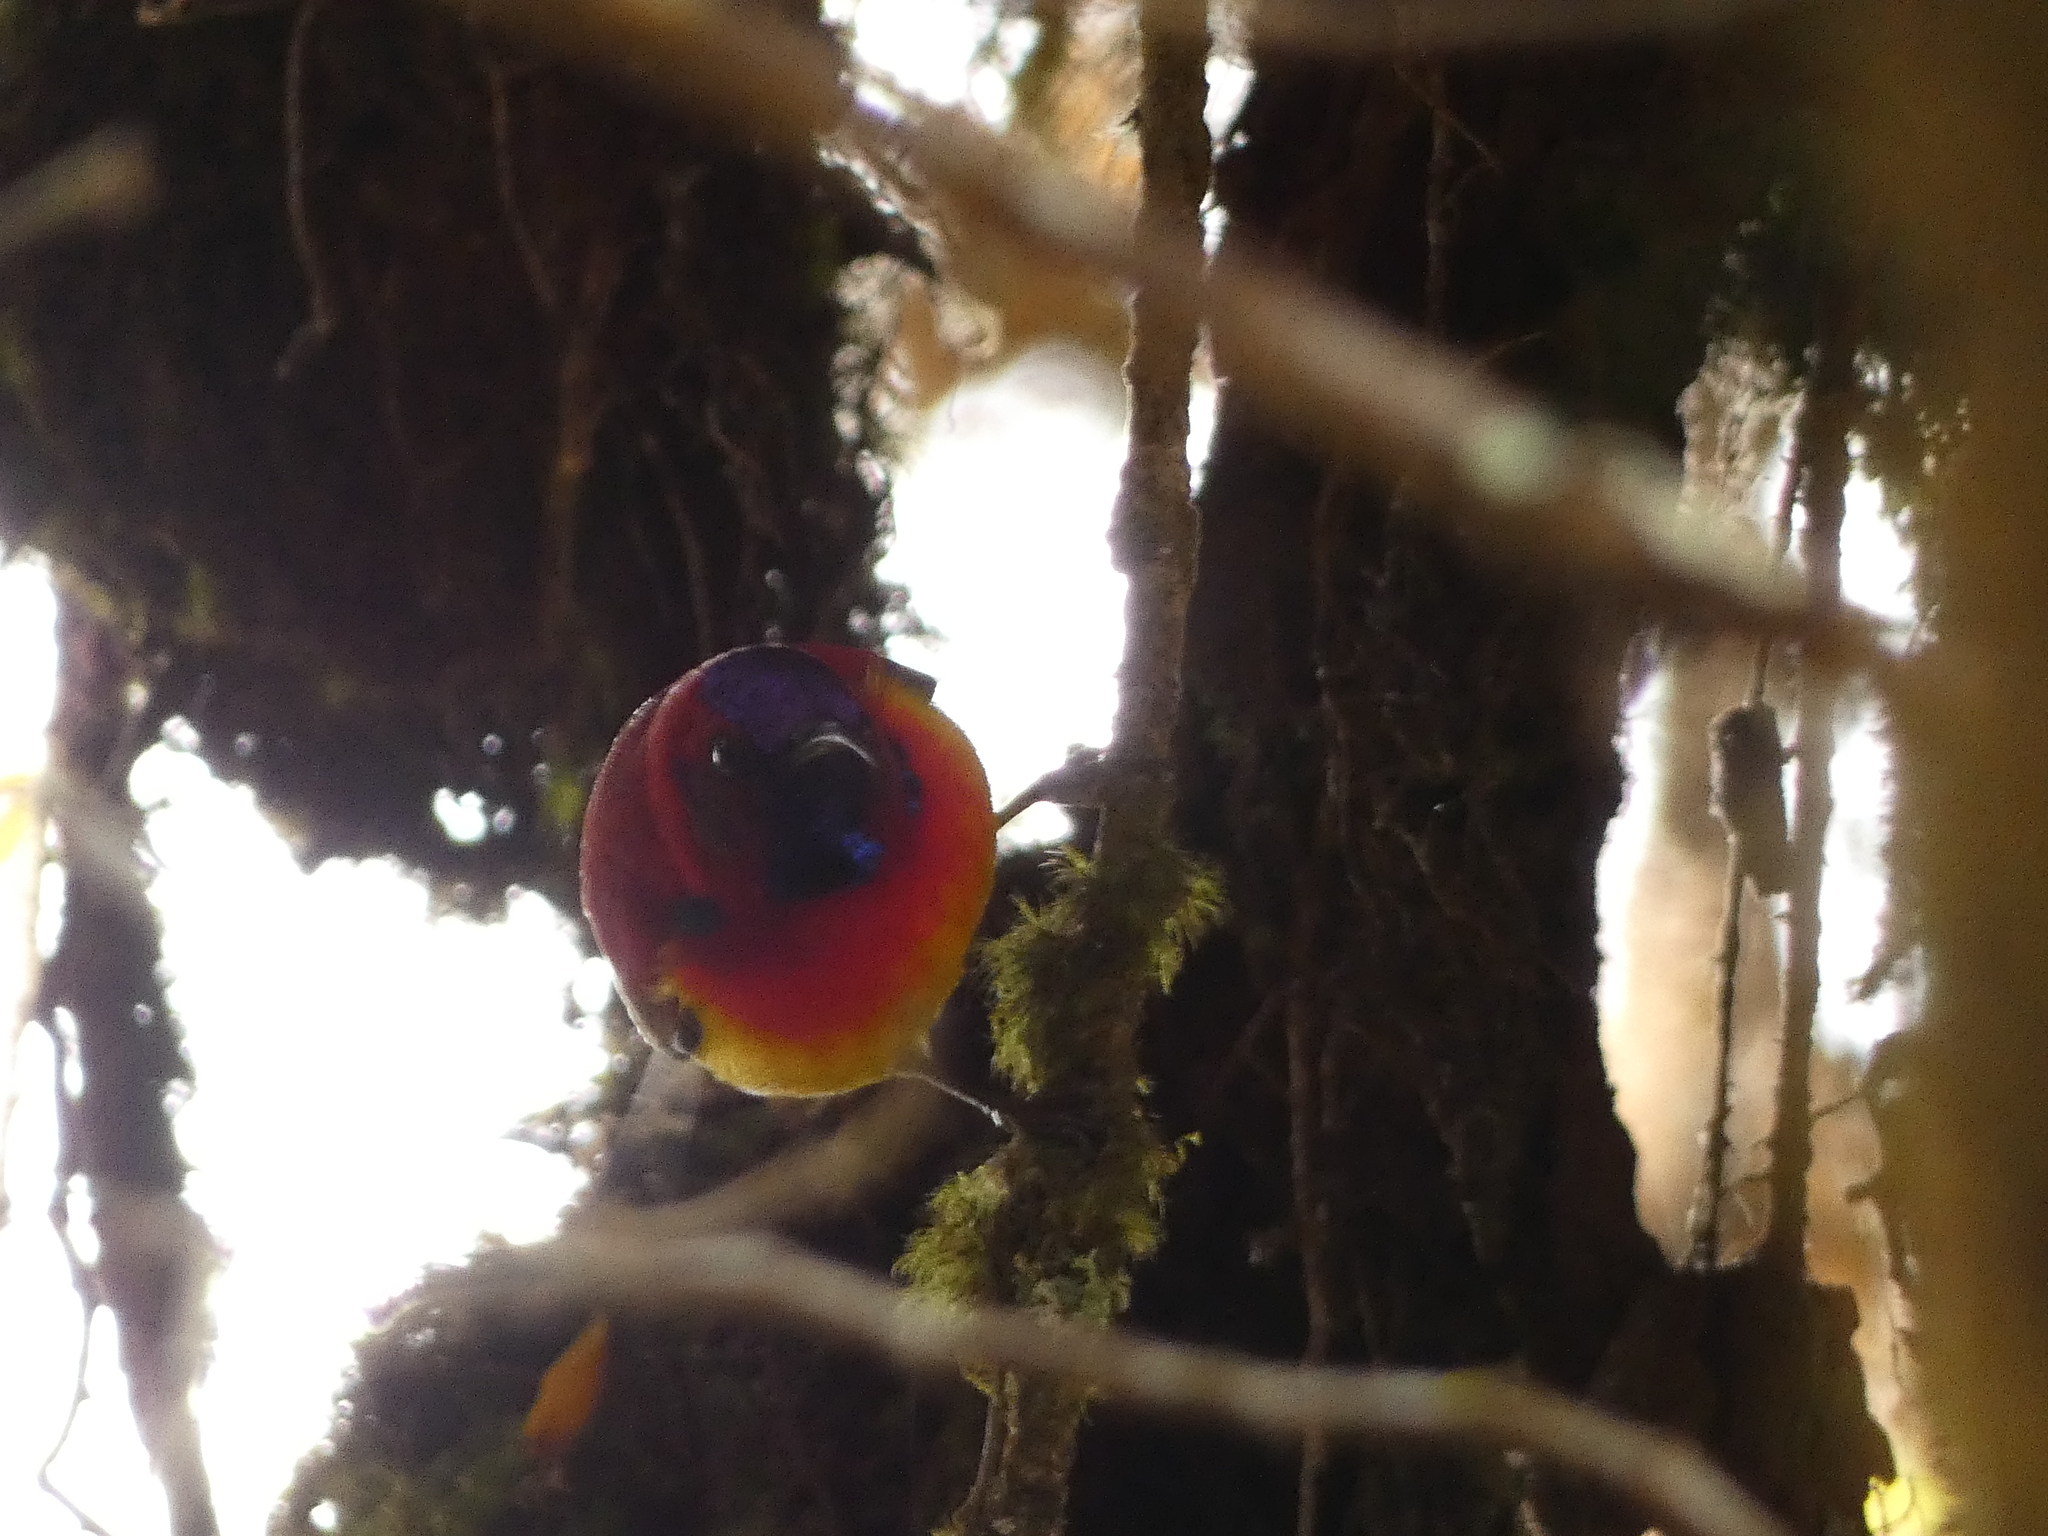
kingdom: Animalia
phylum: Chordata
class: Aves
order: Passeriformes
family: Nectariniidae
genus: Aethopyga
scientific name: Aethopyga gouldiae
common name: Mrs. gould's sunbird
